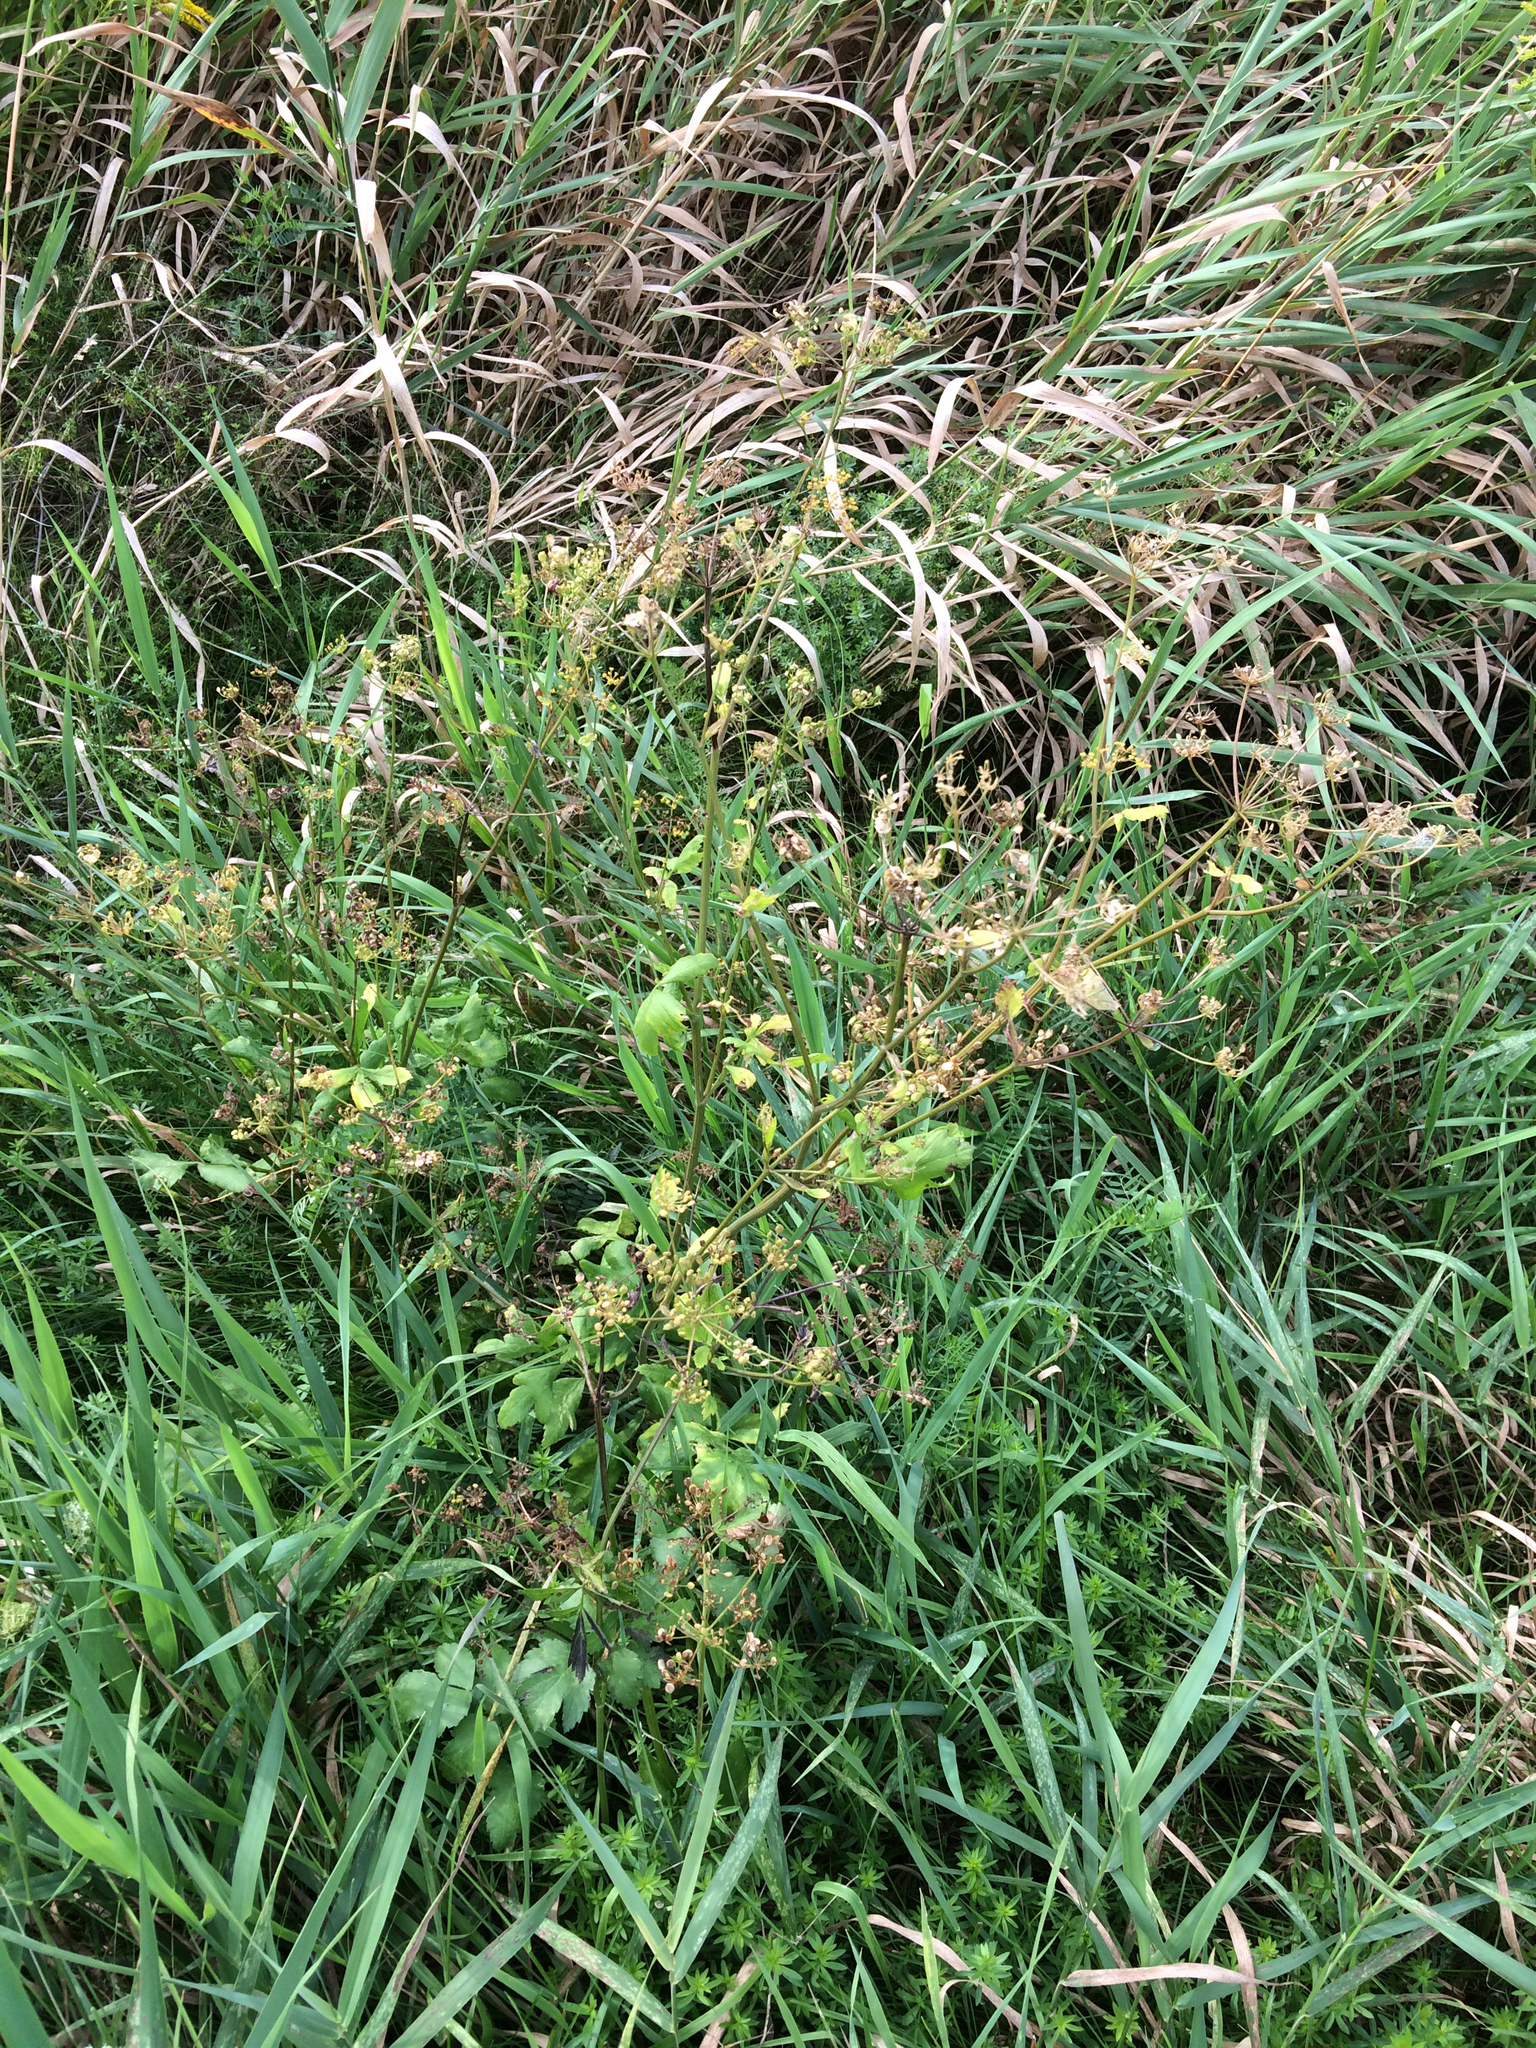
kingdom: Plantae
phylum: Tracheophyta
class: Magnoliopsida
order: Apiales
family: Apiaceae
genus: Pastinaca
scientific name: Pastinaca sativa
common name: Wild parsnip
